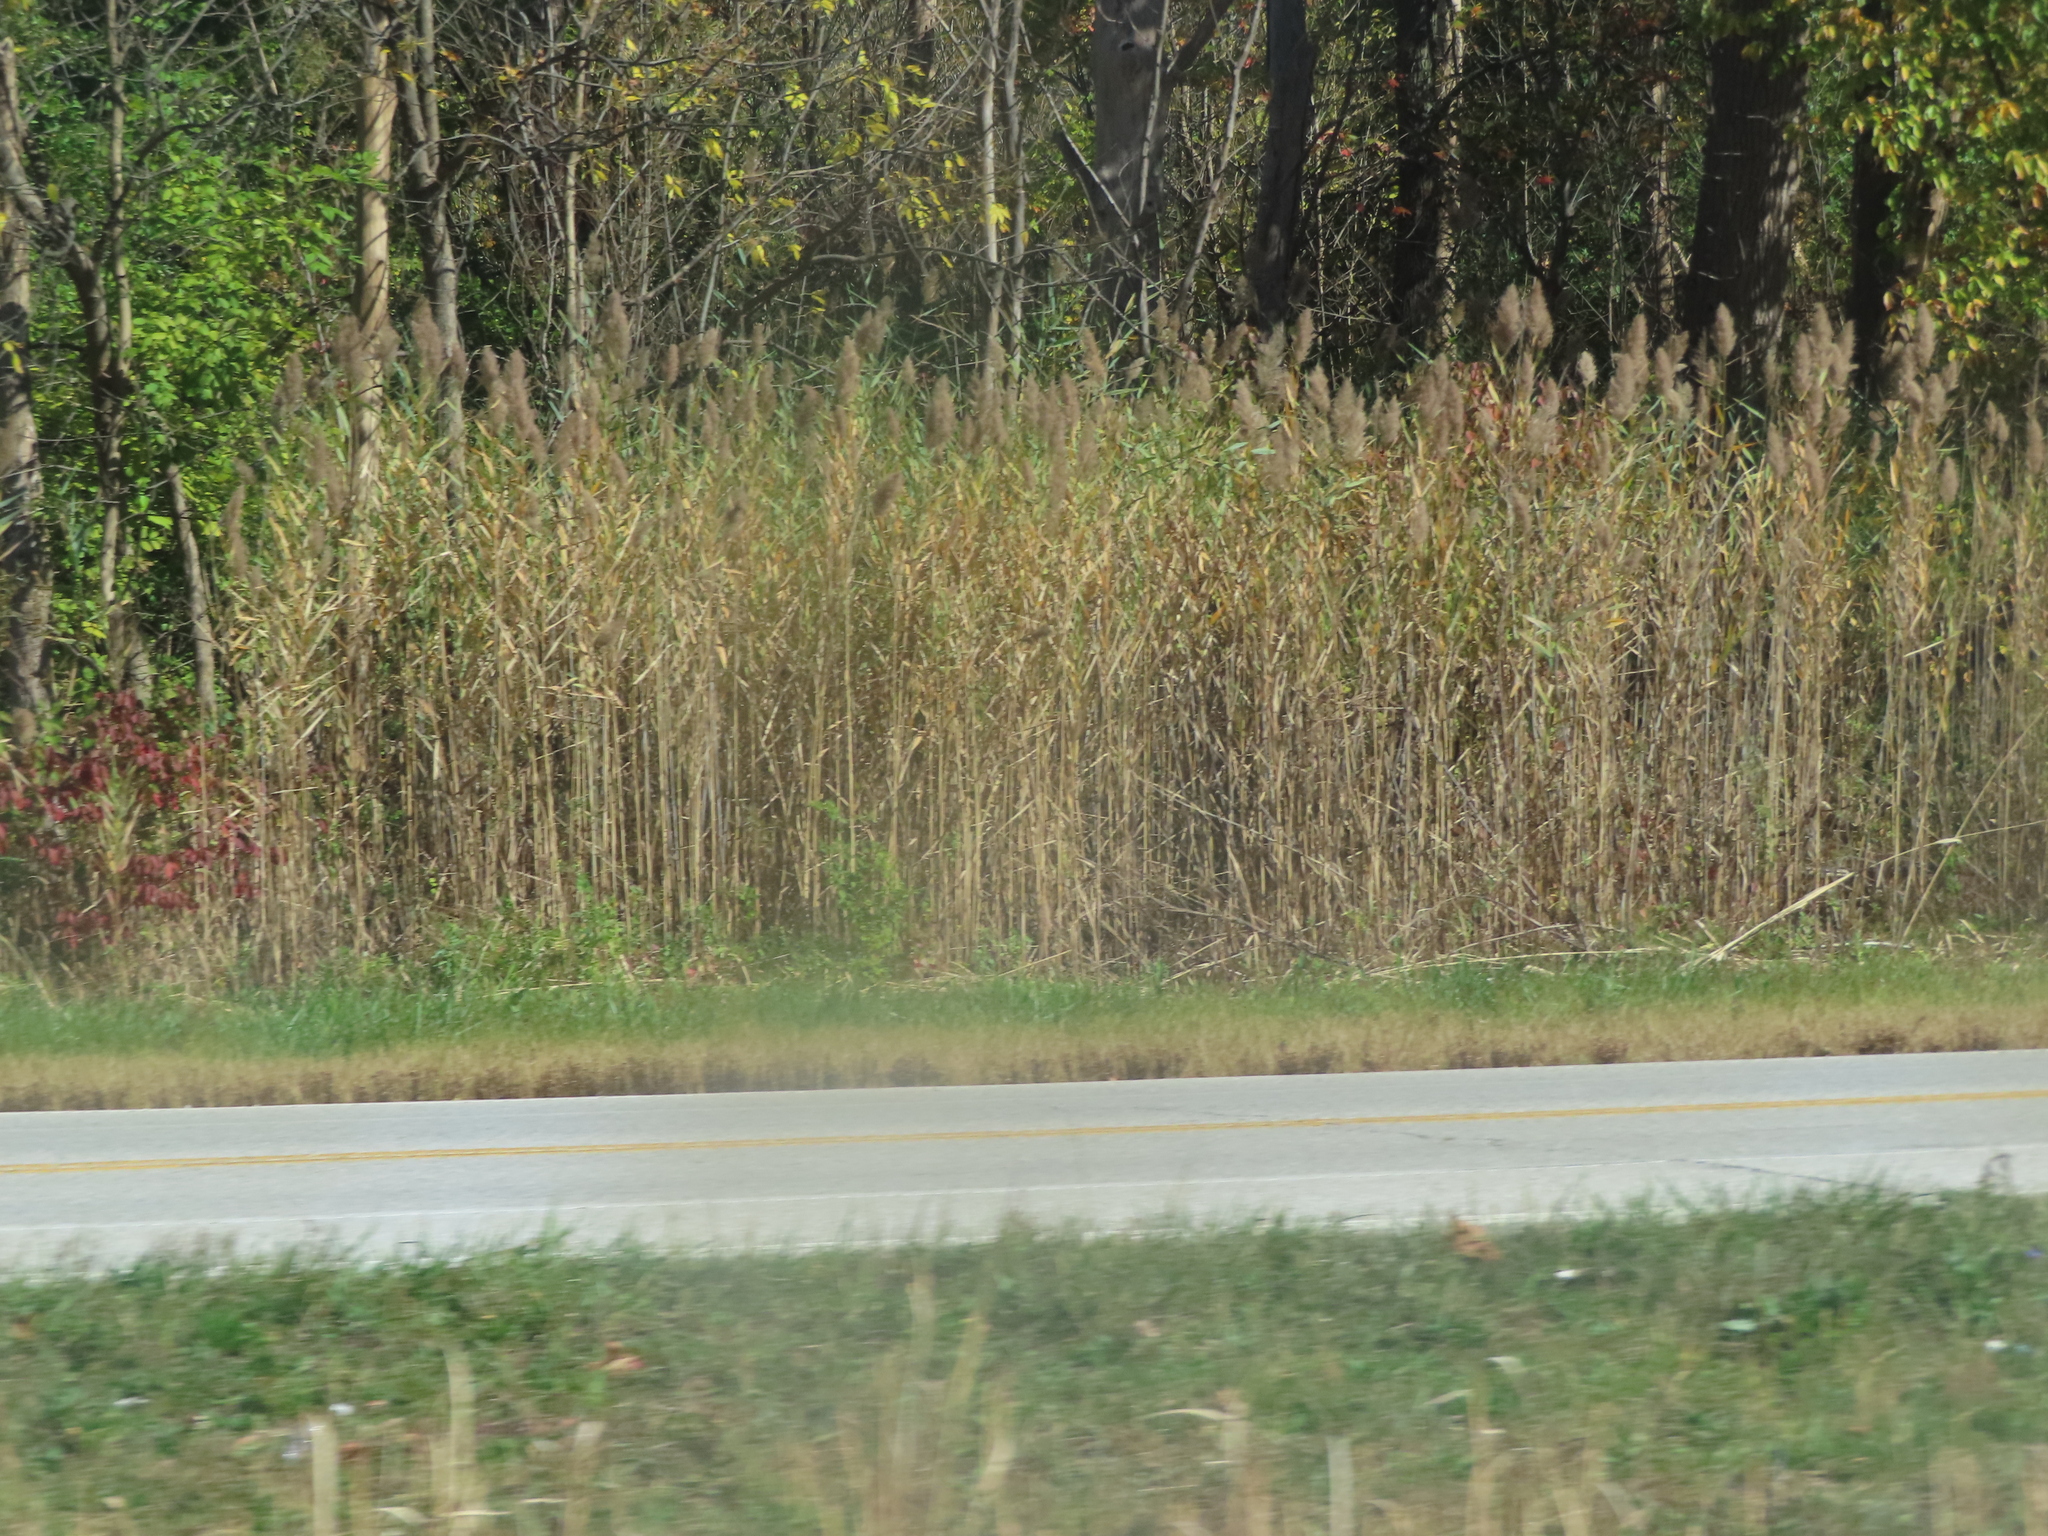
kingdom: Plantae
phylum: Tracheophyta
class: Liliopsida
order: Poales
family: Poaceae
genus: Phragmites
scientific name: Phragmites australis
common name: Common reed
